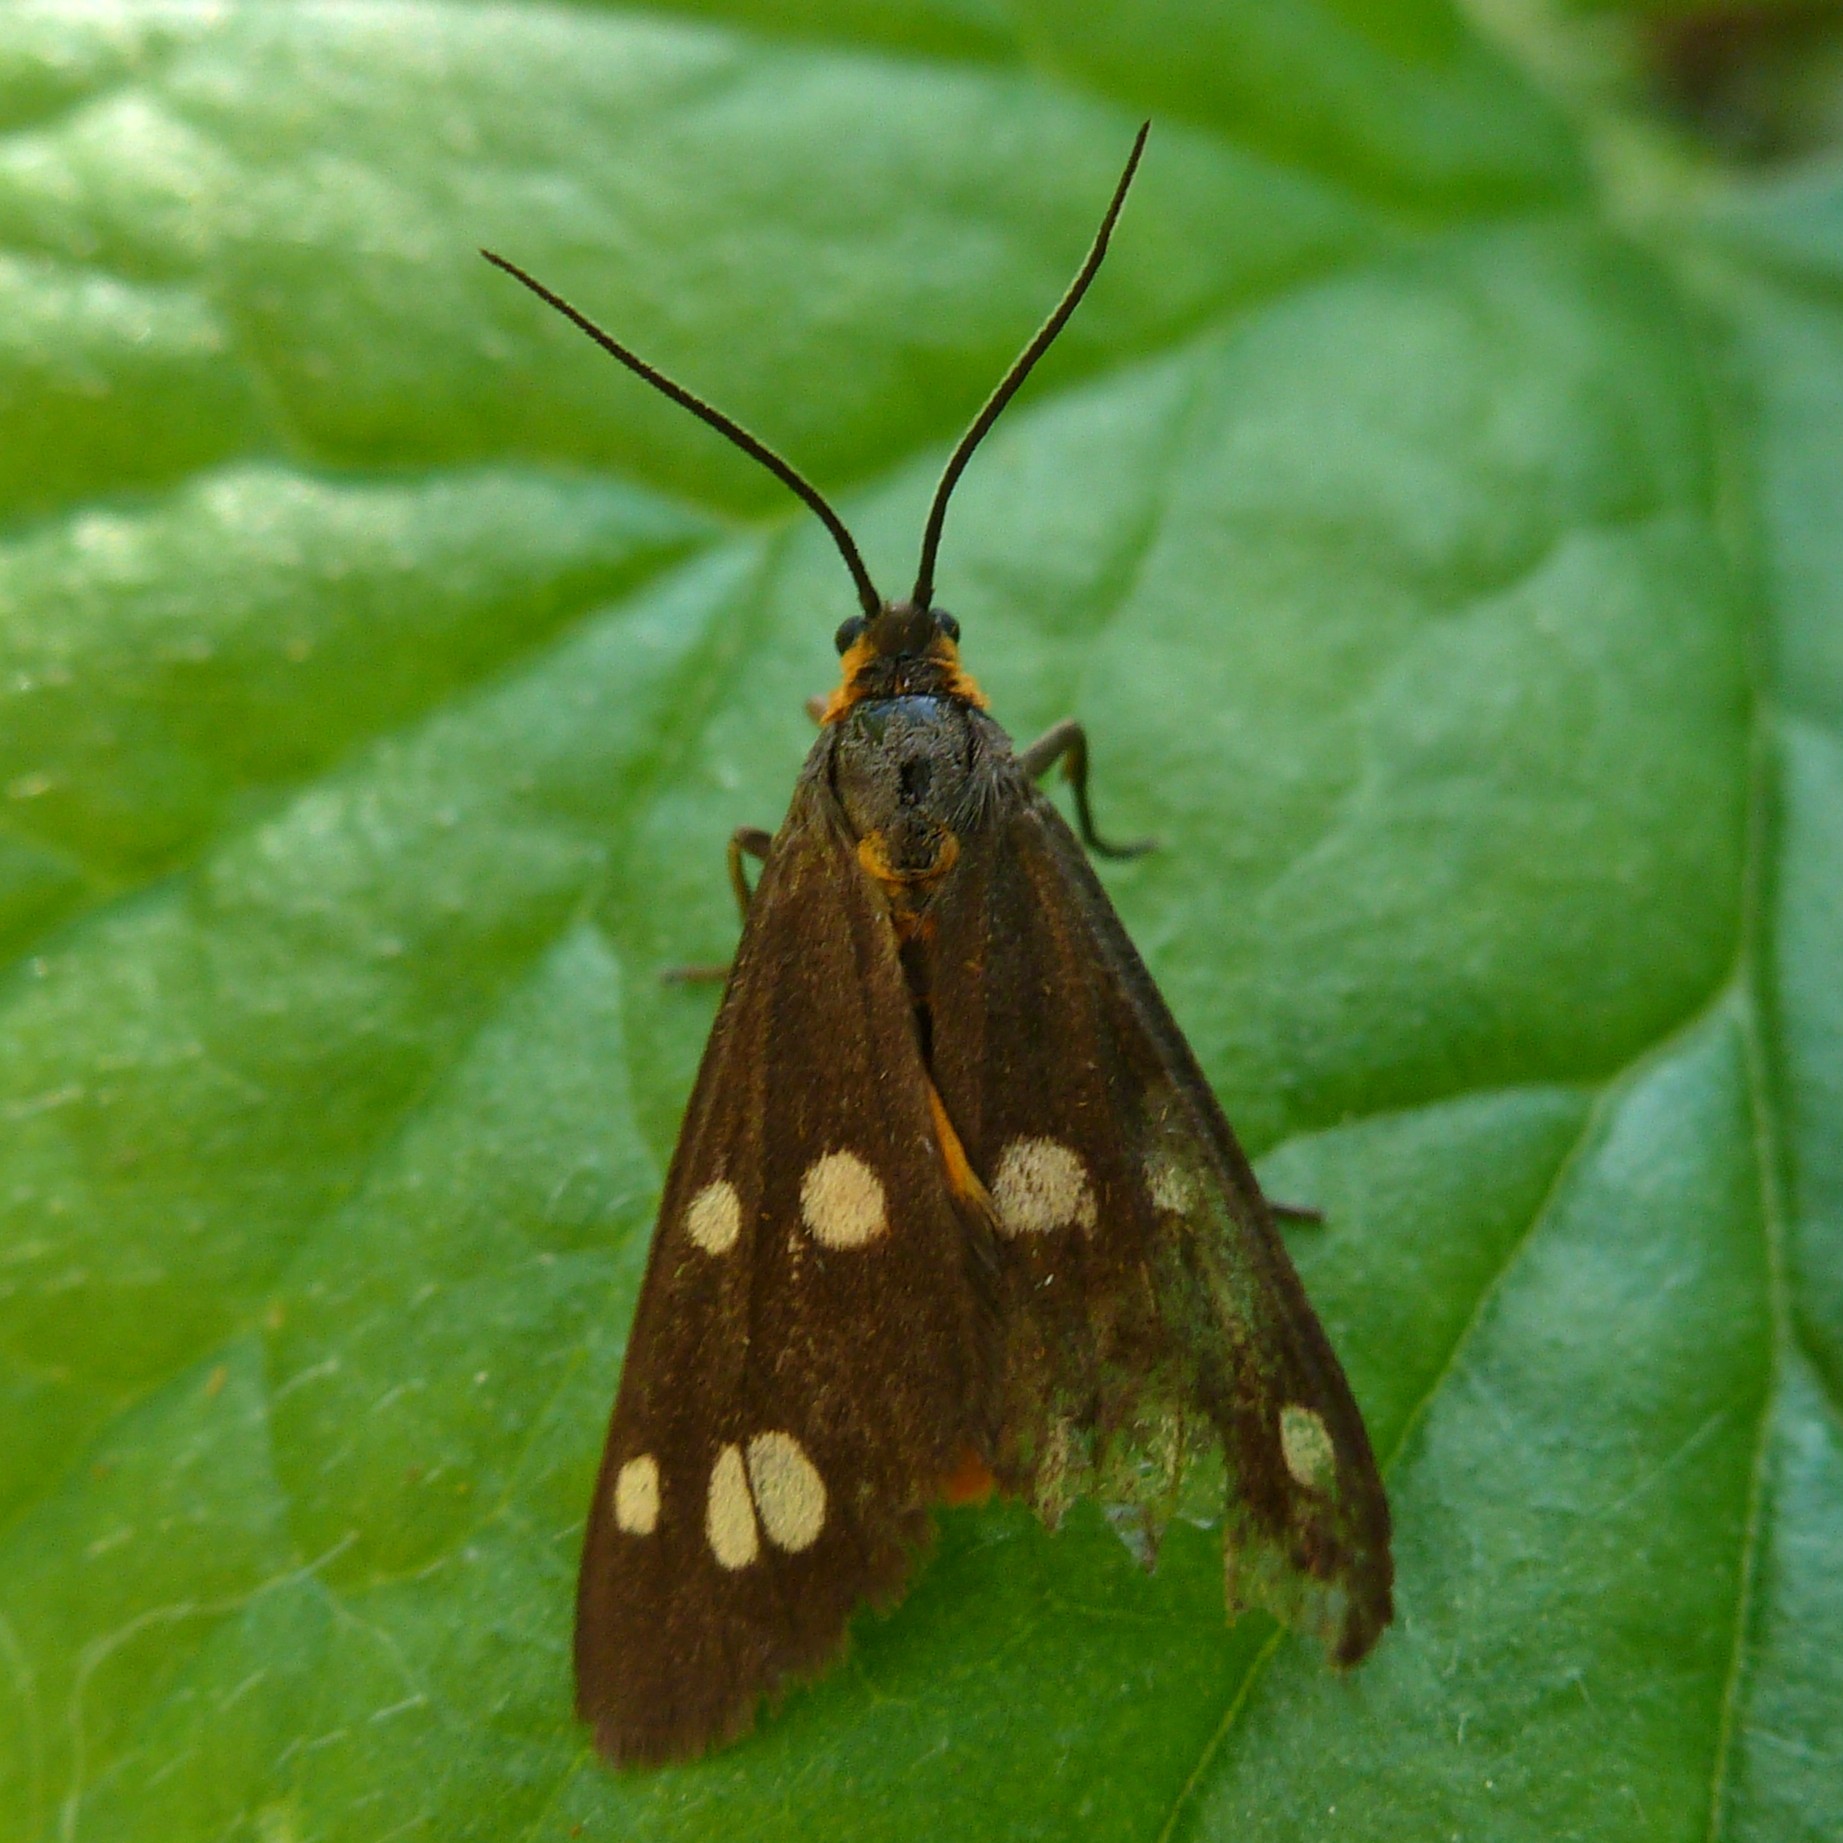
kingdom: Animalia
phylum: Arthropoda
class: Insecta
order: Lepidoptera
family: Erebidae
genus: Dysauxes
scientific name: Dysauxes punctata
